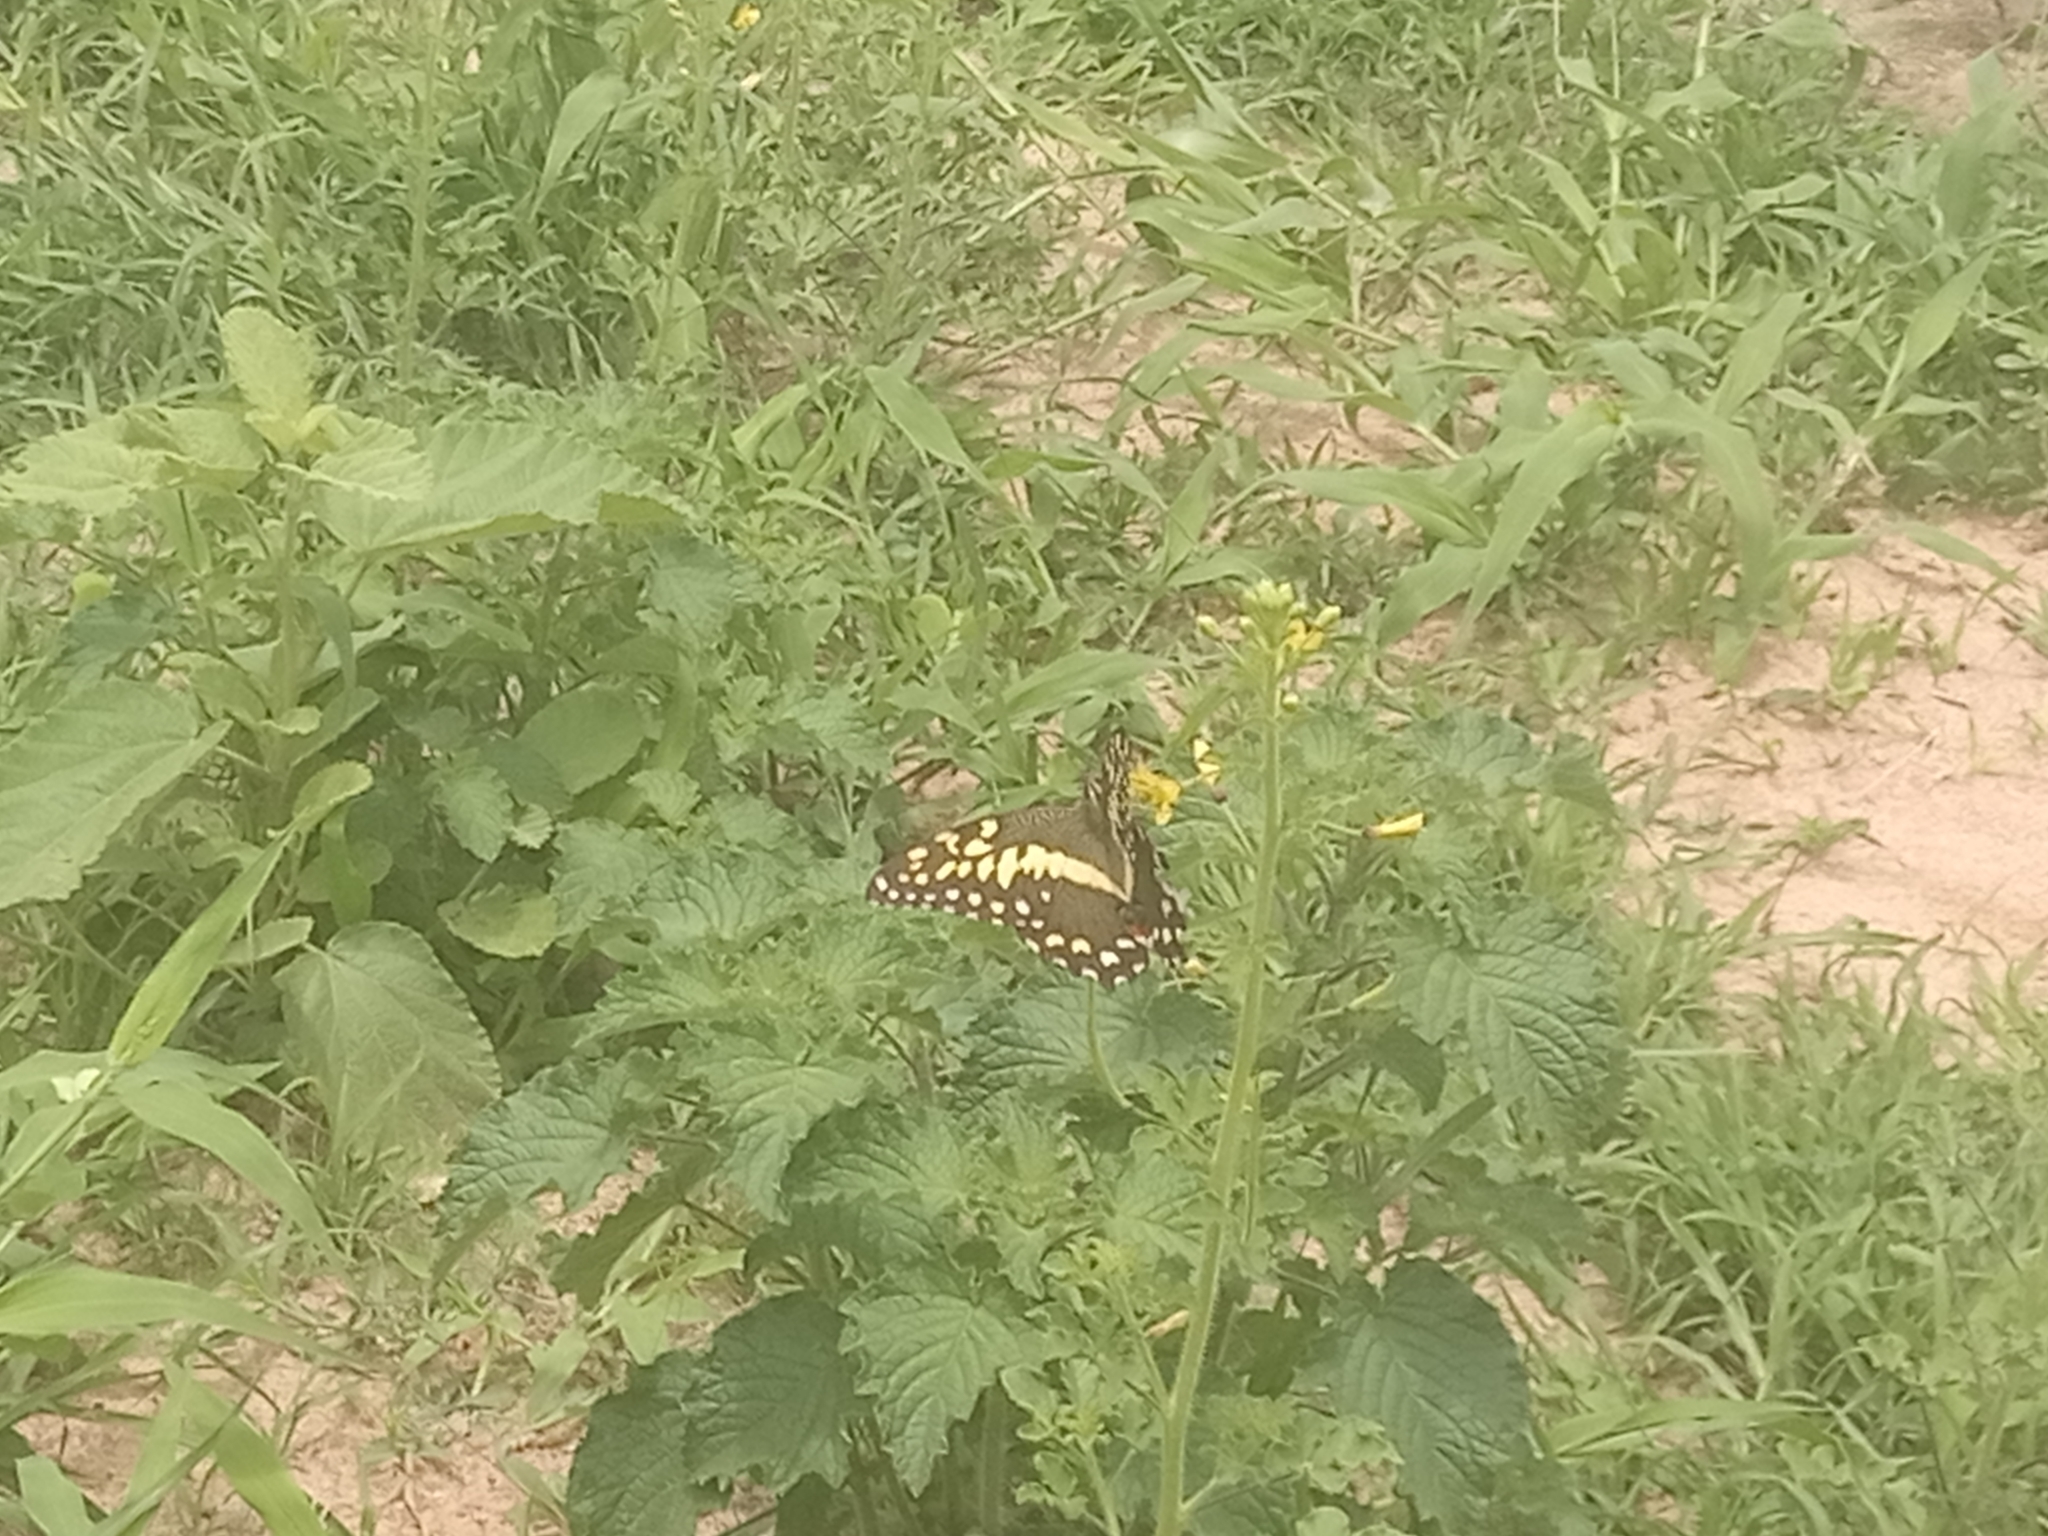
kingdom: Animalia
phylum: Arthropoda
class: Insecta
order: Lepidoptera
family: Papilionidae
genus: Papilio
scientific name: Papilio demodocus
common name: Christmas butterfly
